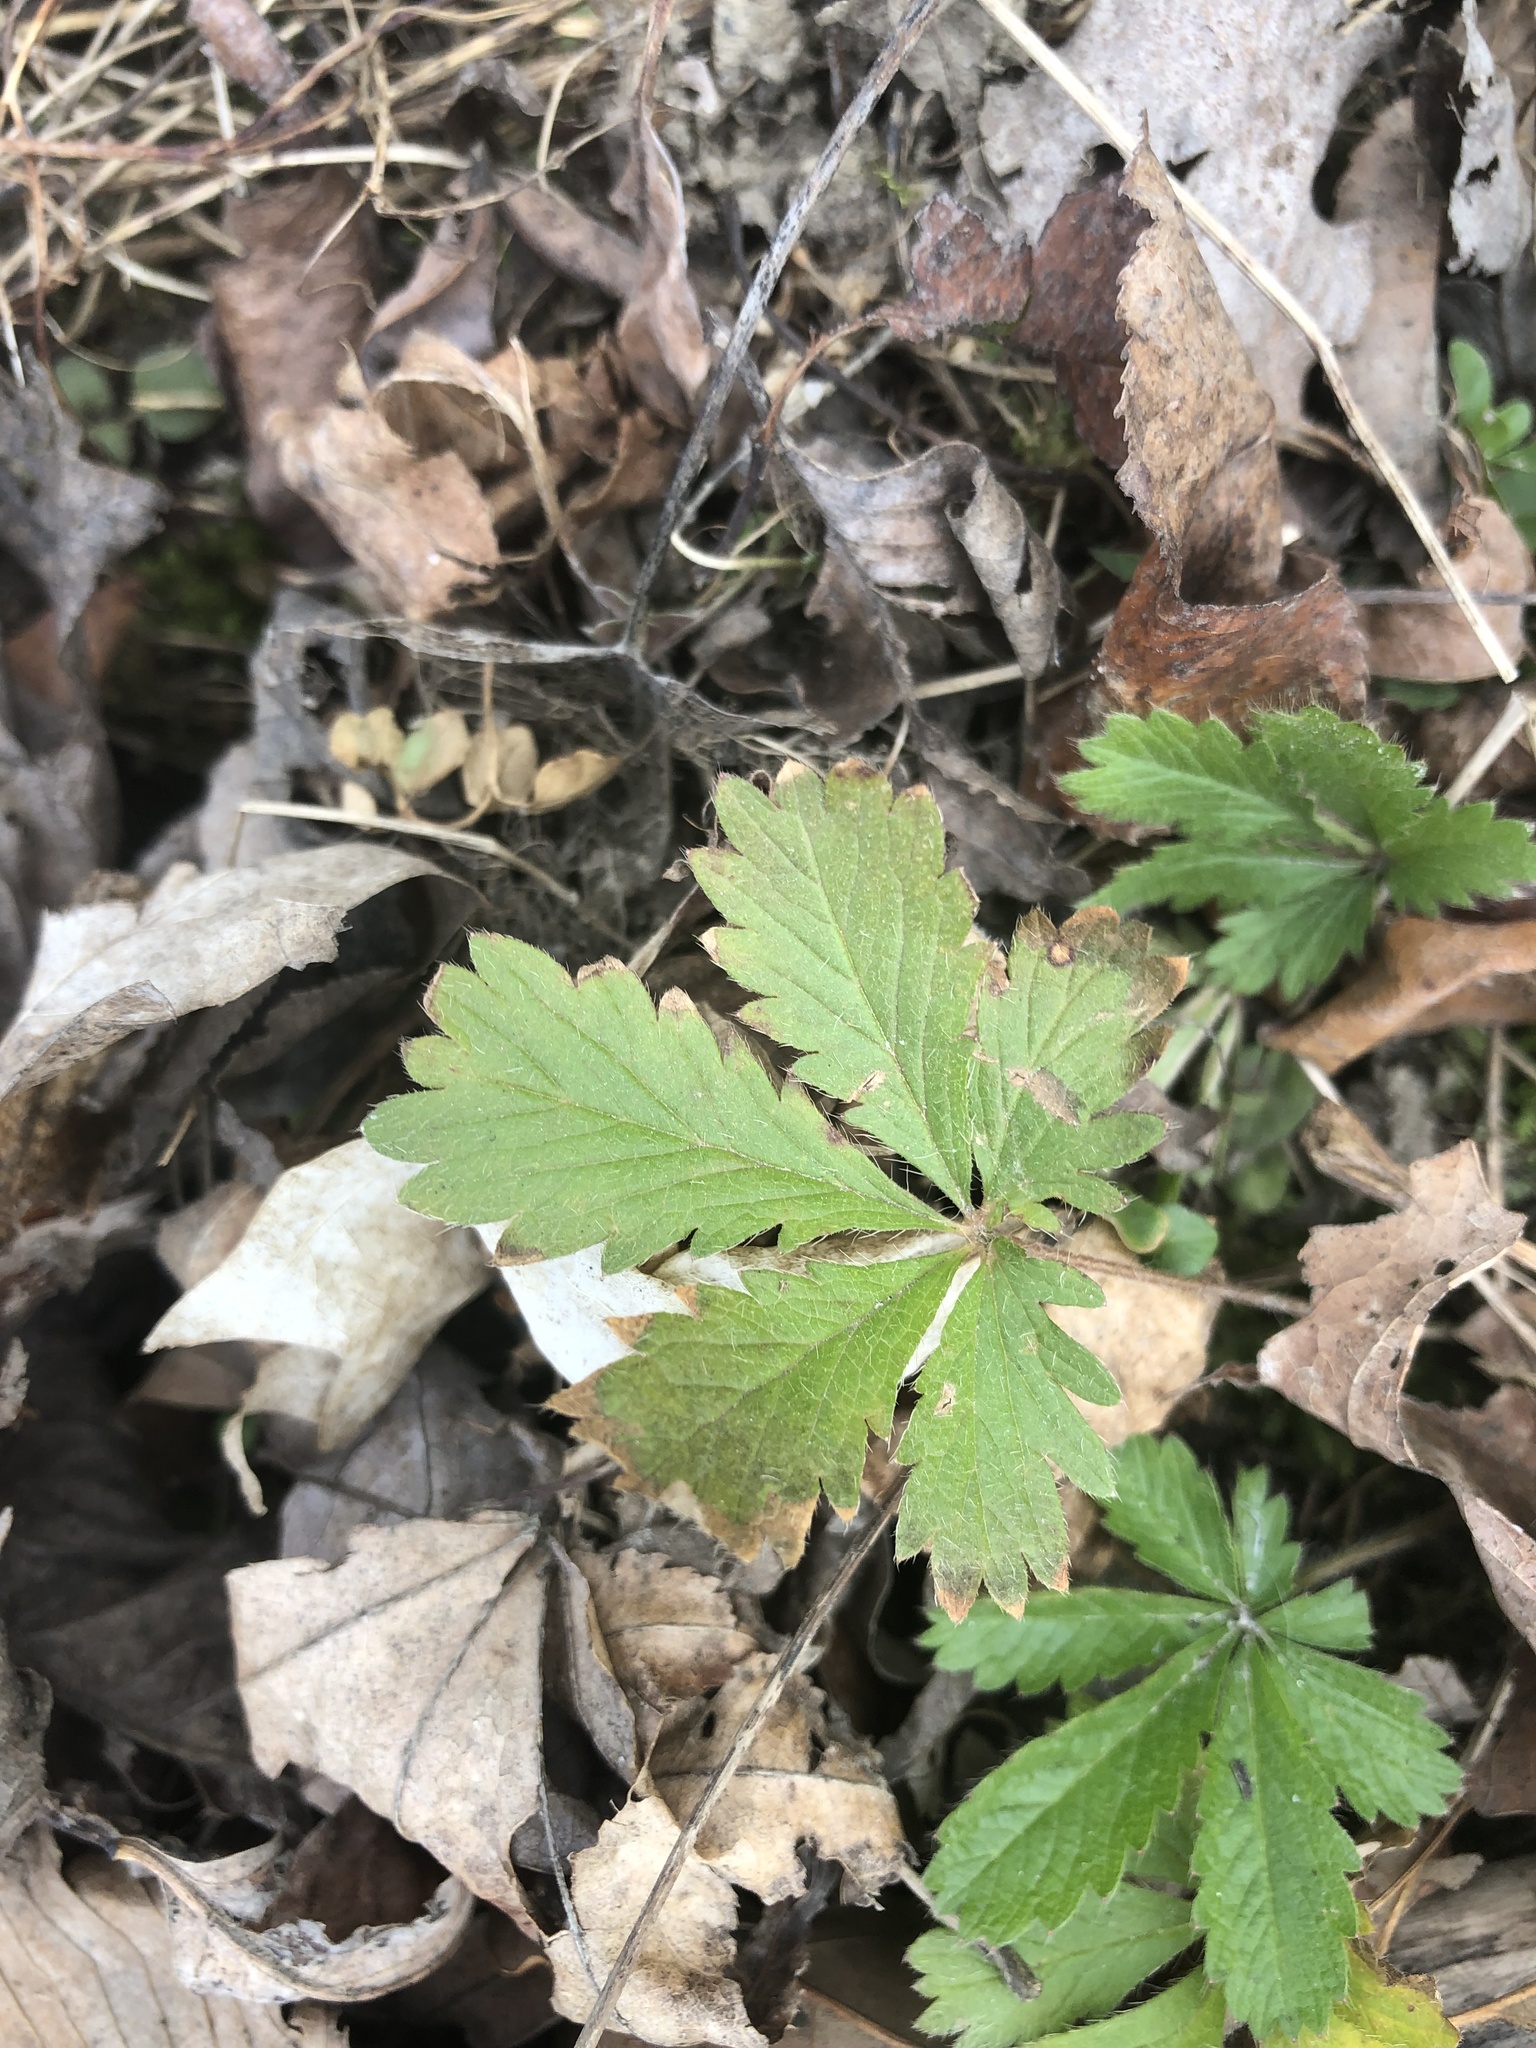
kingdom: Plantae
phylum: Tracheophyta
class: Magnoliopsida
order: Rosales
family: Rosaceae
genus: Potentilla
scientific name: Potentilla recta
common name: Sulphur cinquefoil
